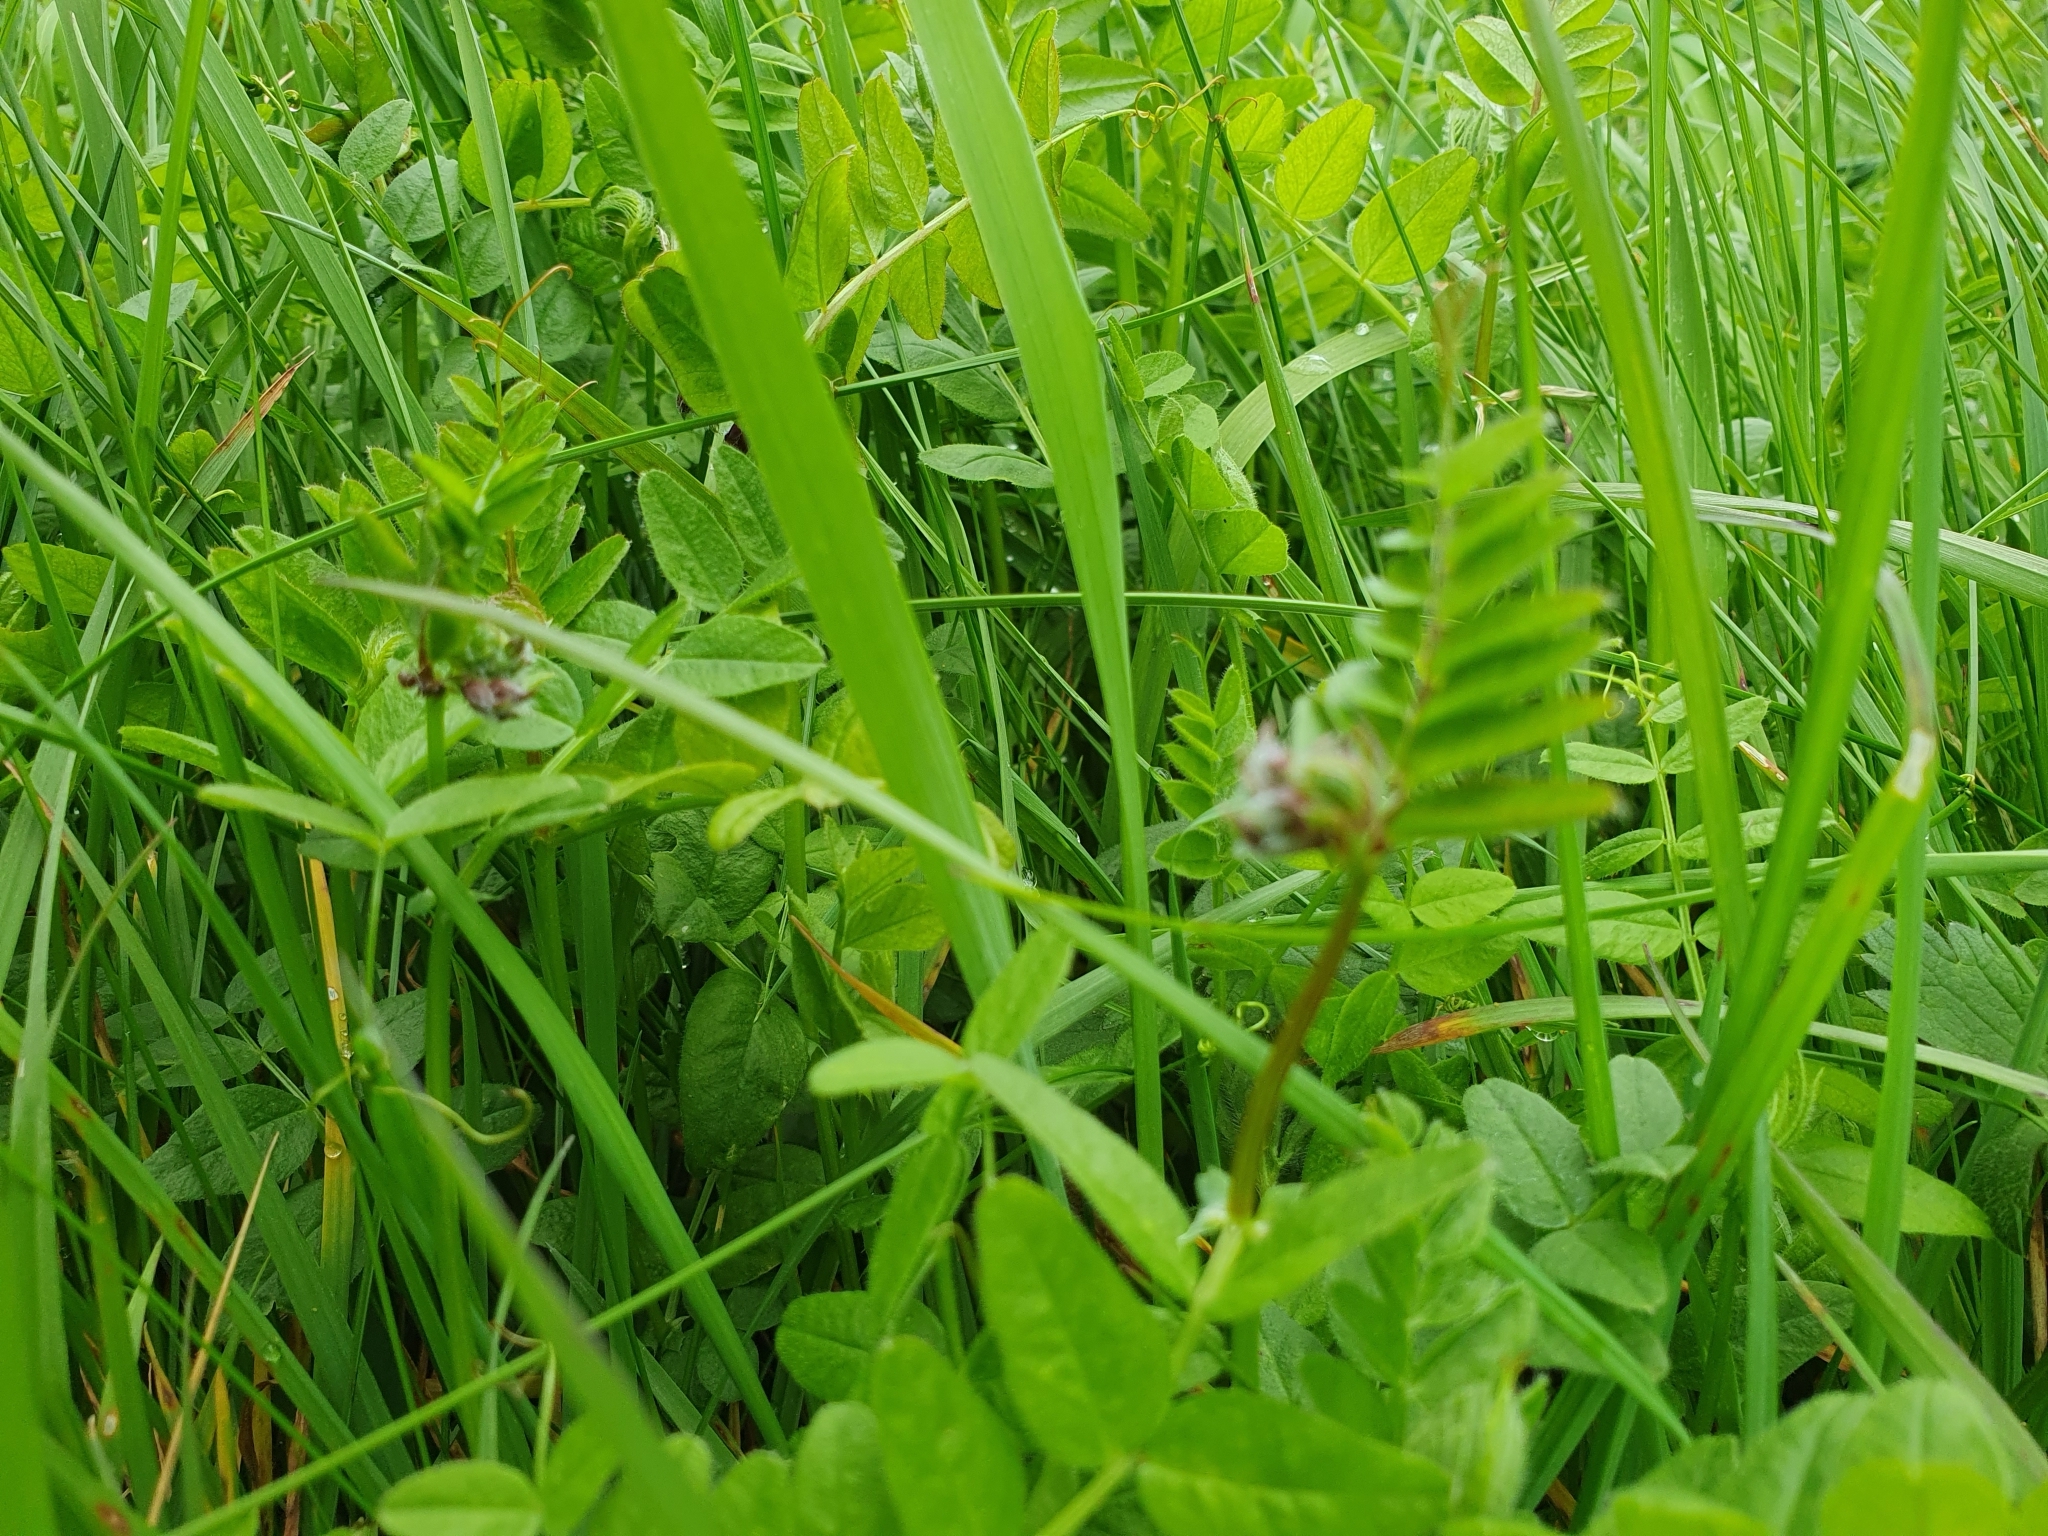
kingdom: Plantae
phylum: Tracheophyta
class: Magnoliopsida
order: Fabales
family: Fabaceae
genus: Vicia
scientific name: Vicia sepium
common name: Bush vetch
